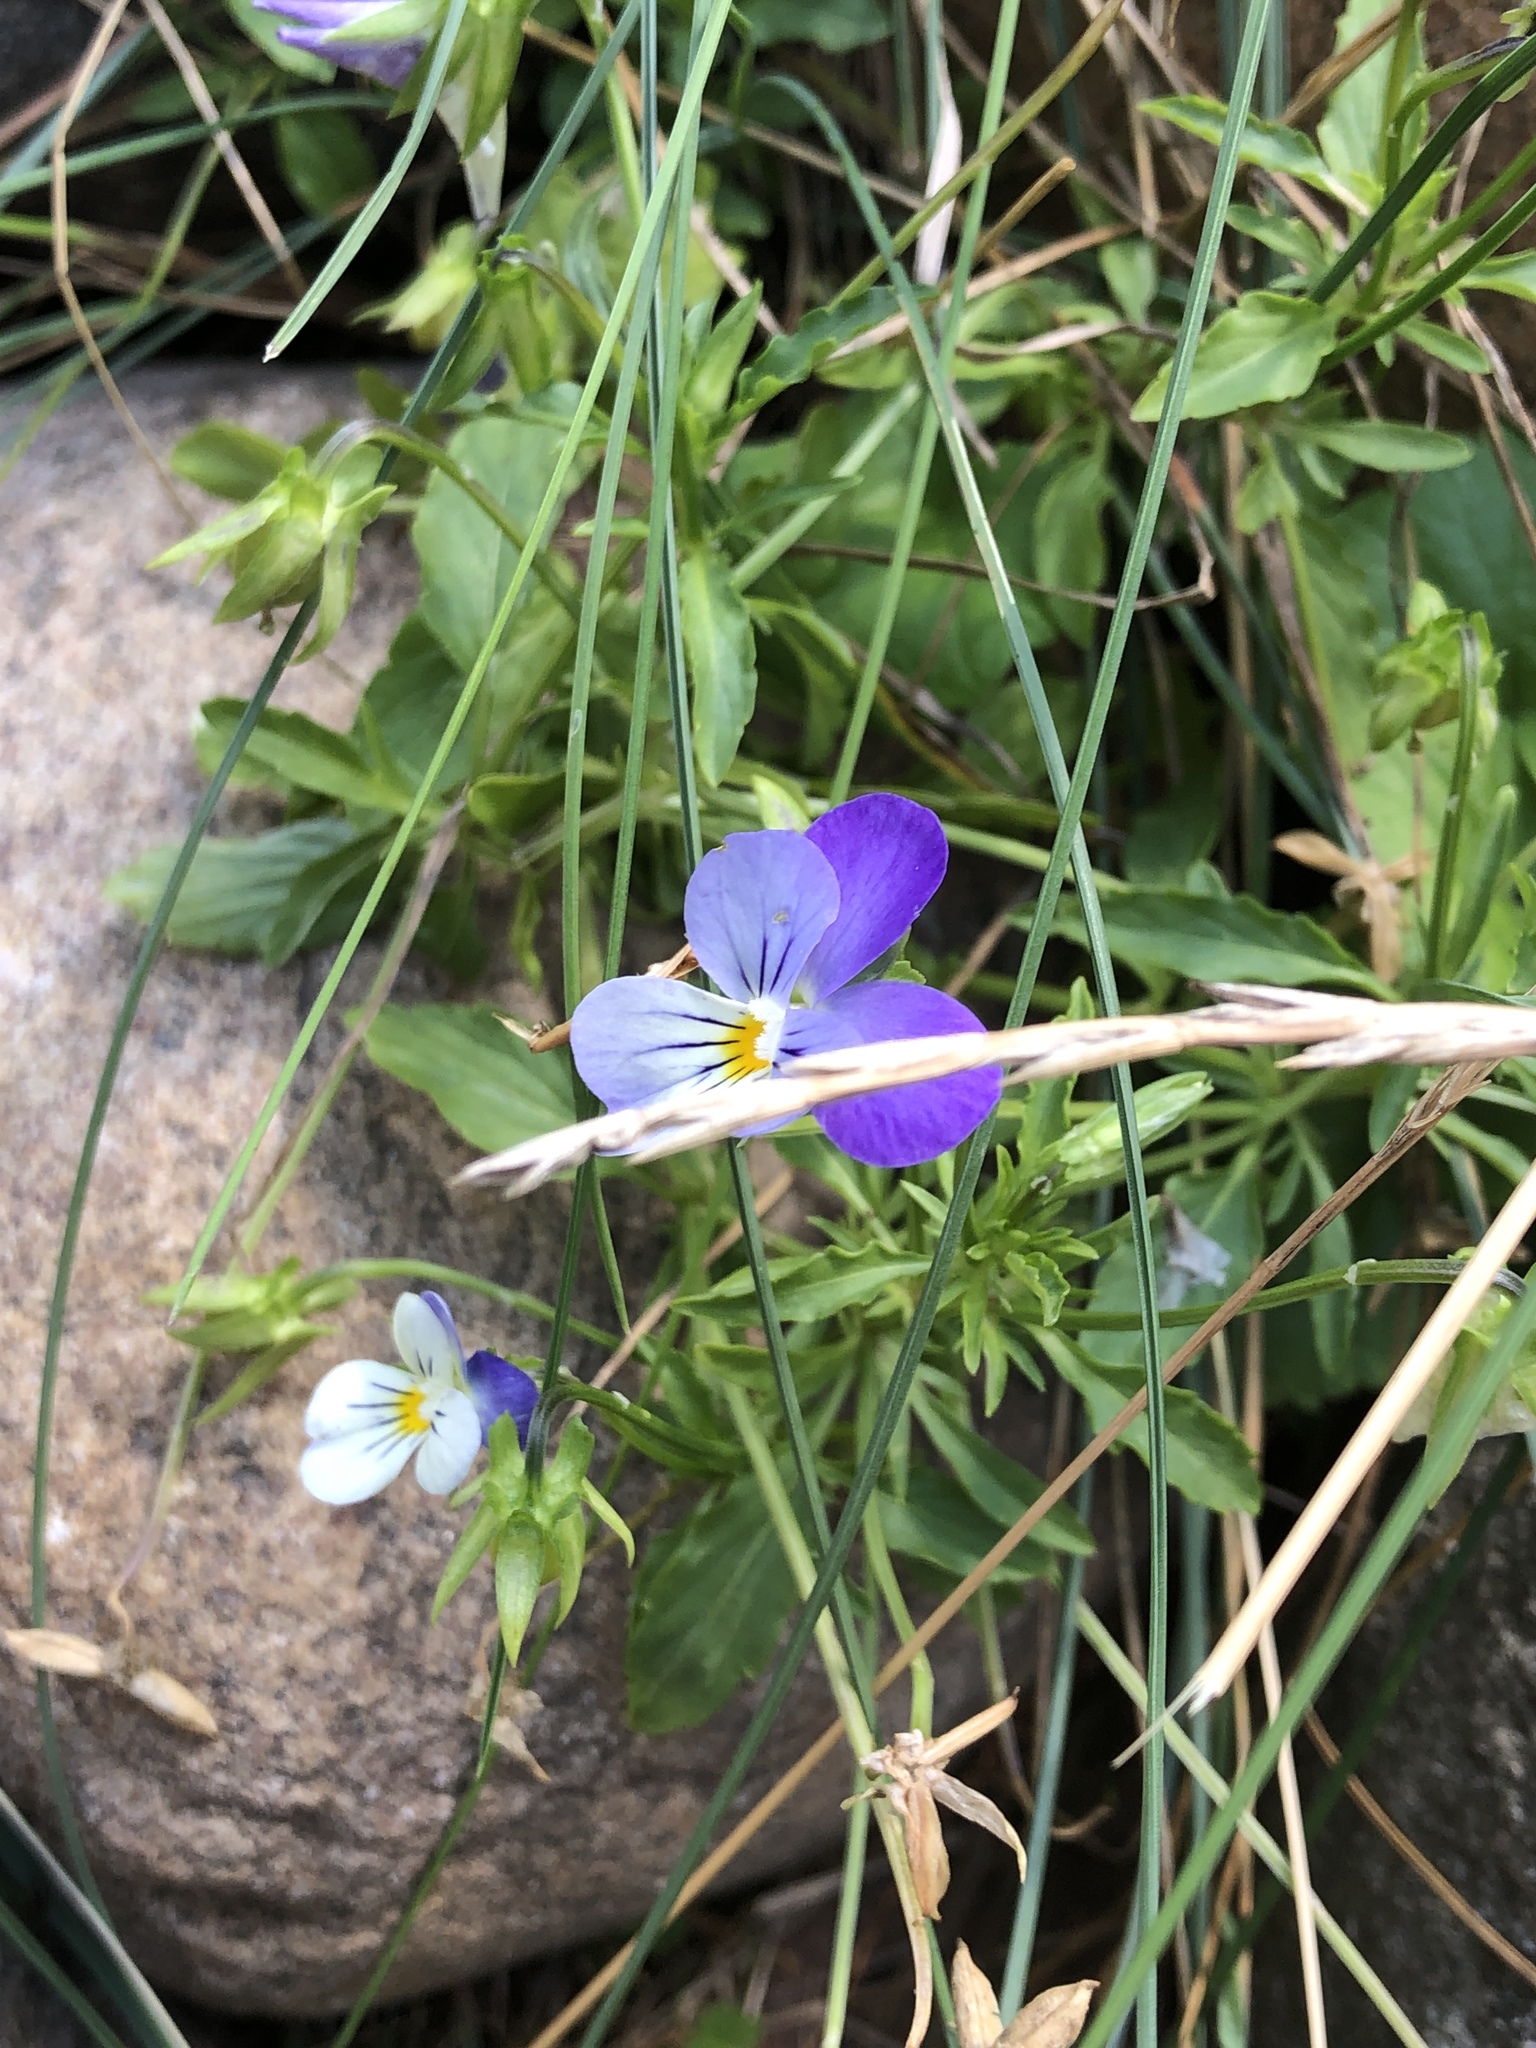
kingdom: Plantae
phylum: Tracheophyta
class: Magnoliopsida
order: Malpighiales
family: Violaceae
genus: Viola
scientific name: Viola tricolor
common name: Pansy
